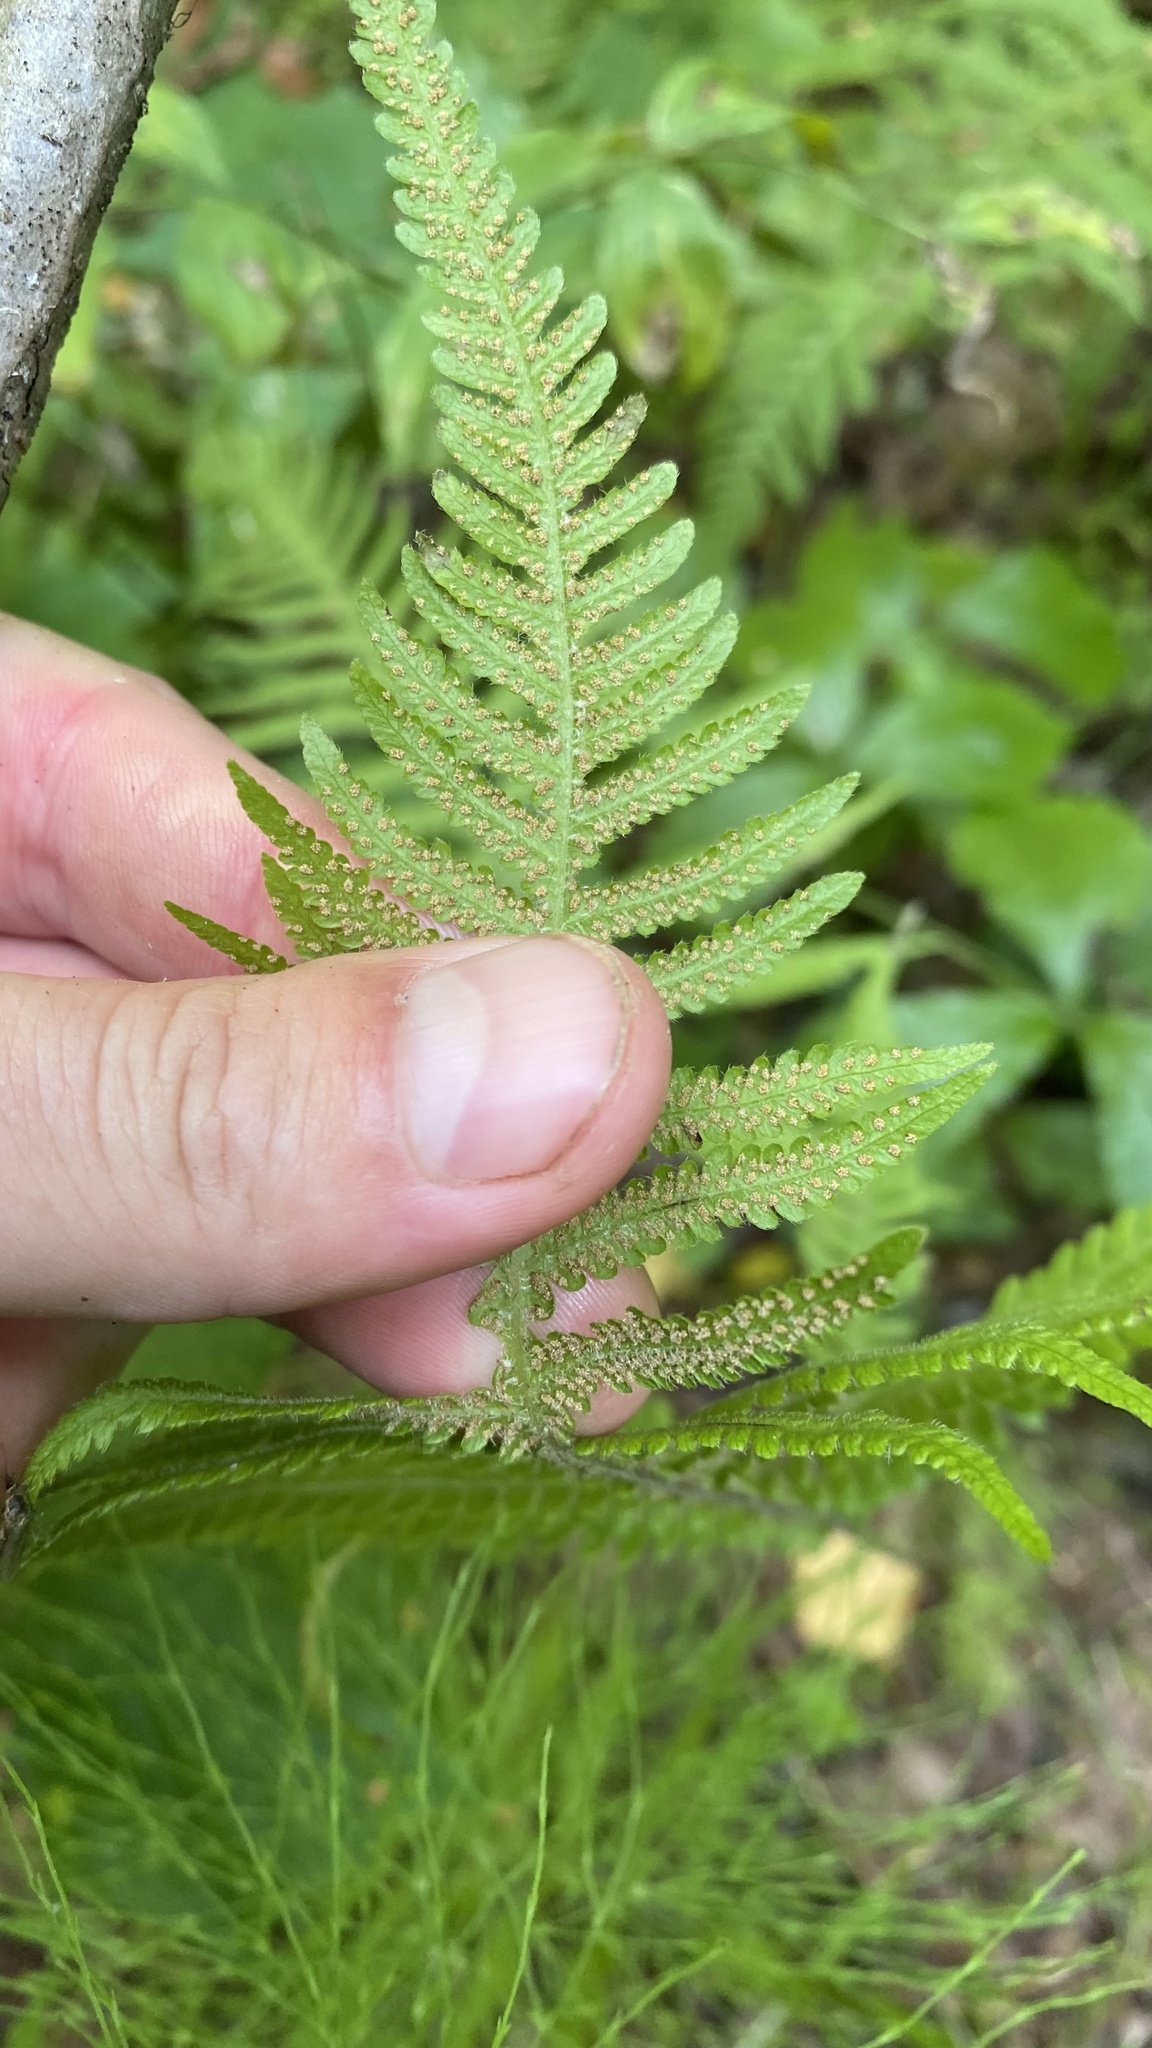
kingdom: Plantae
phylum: Tracheophyta
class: Polypodiopsida
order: Polypodiales
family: Thelypteridaceae
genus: Phegopteris
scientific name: Phegopteris connectilis
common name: Beech fern
